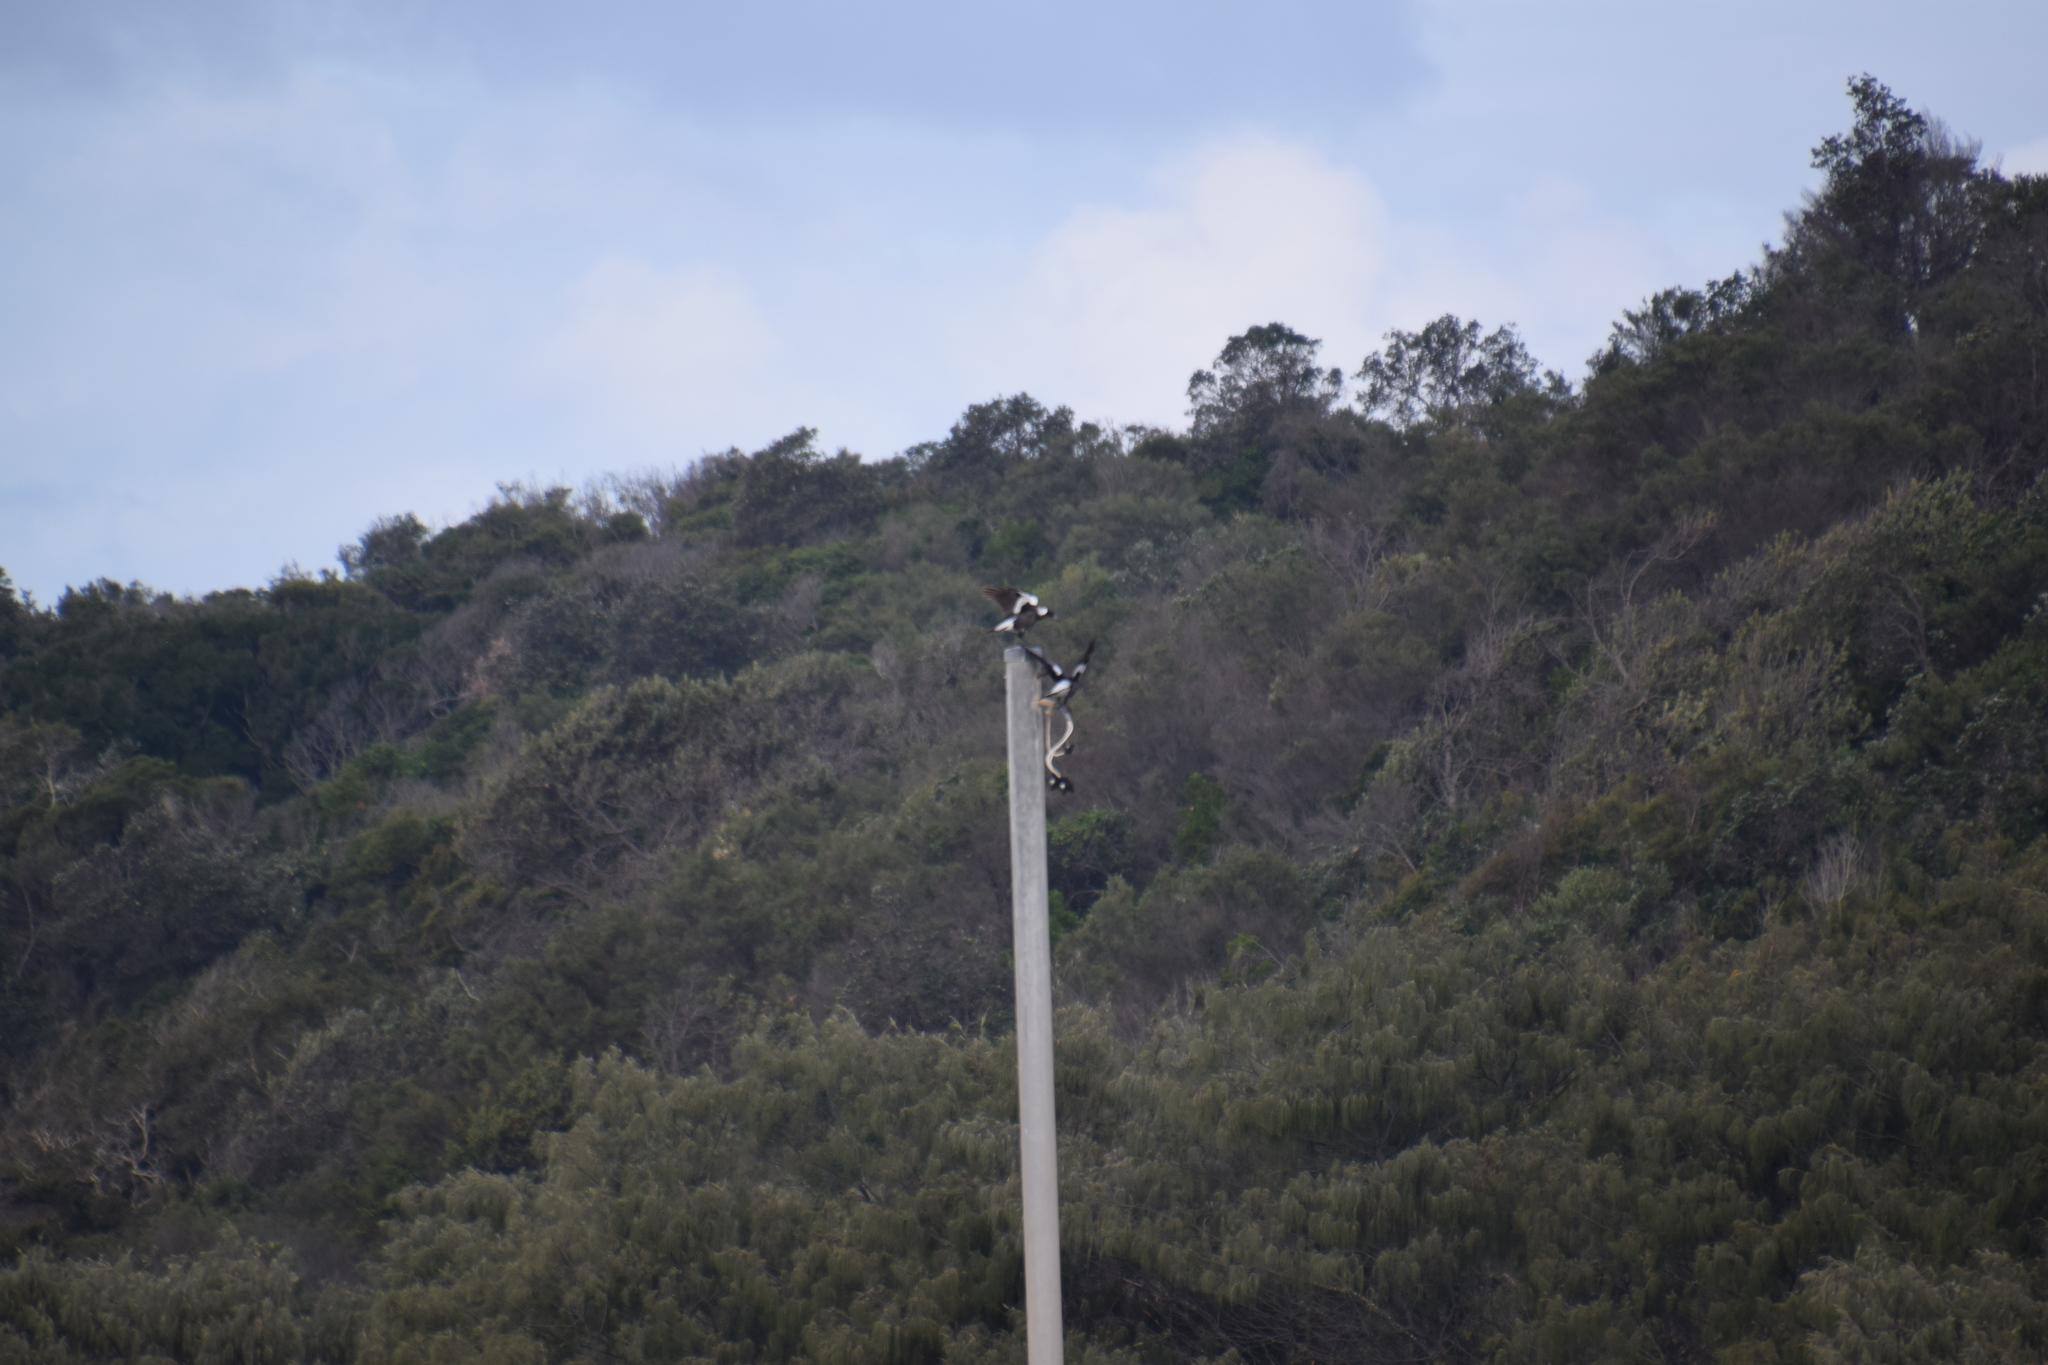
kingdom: Animalia
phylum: Chordata
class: Aves
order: Passeriformes
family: Cracticidae
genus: Gymnorhina
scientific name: Gymnorhina tibicen
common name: Australian magpie
